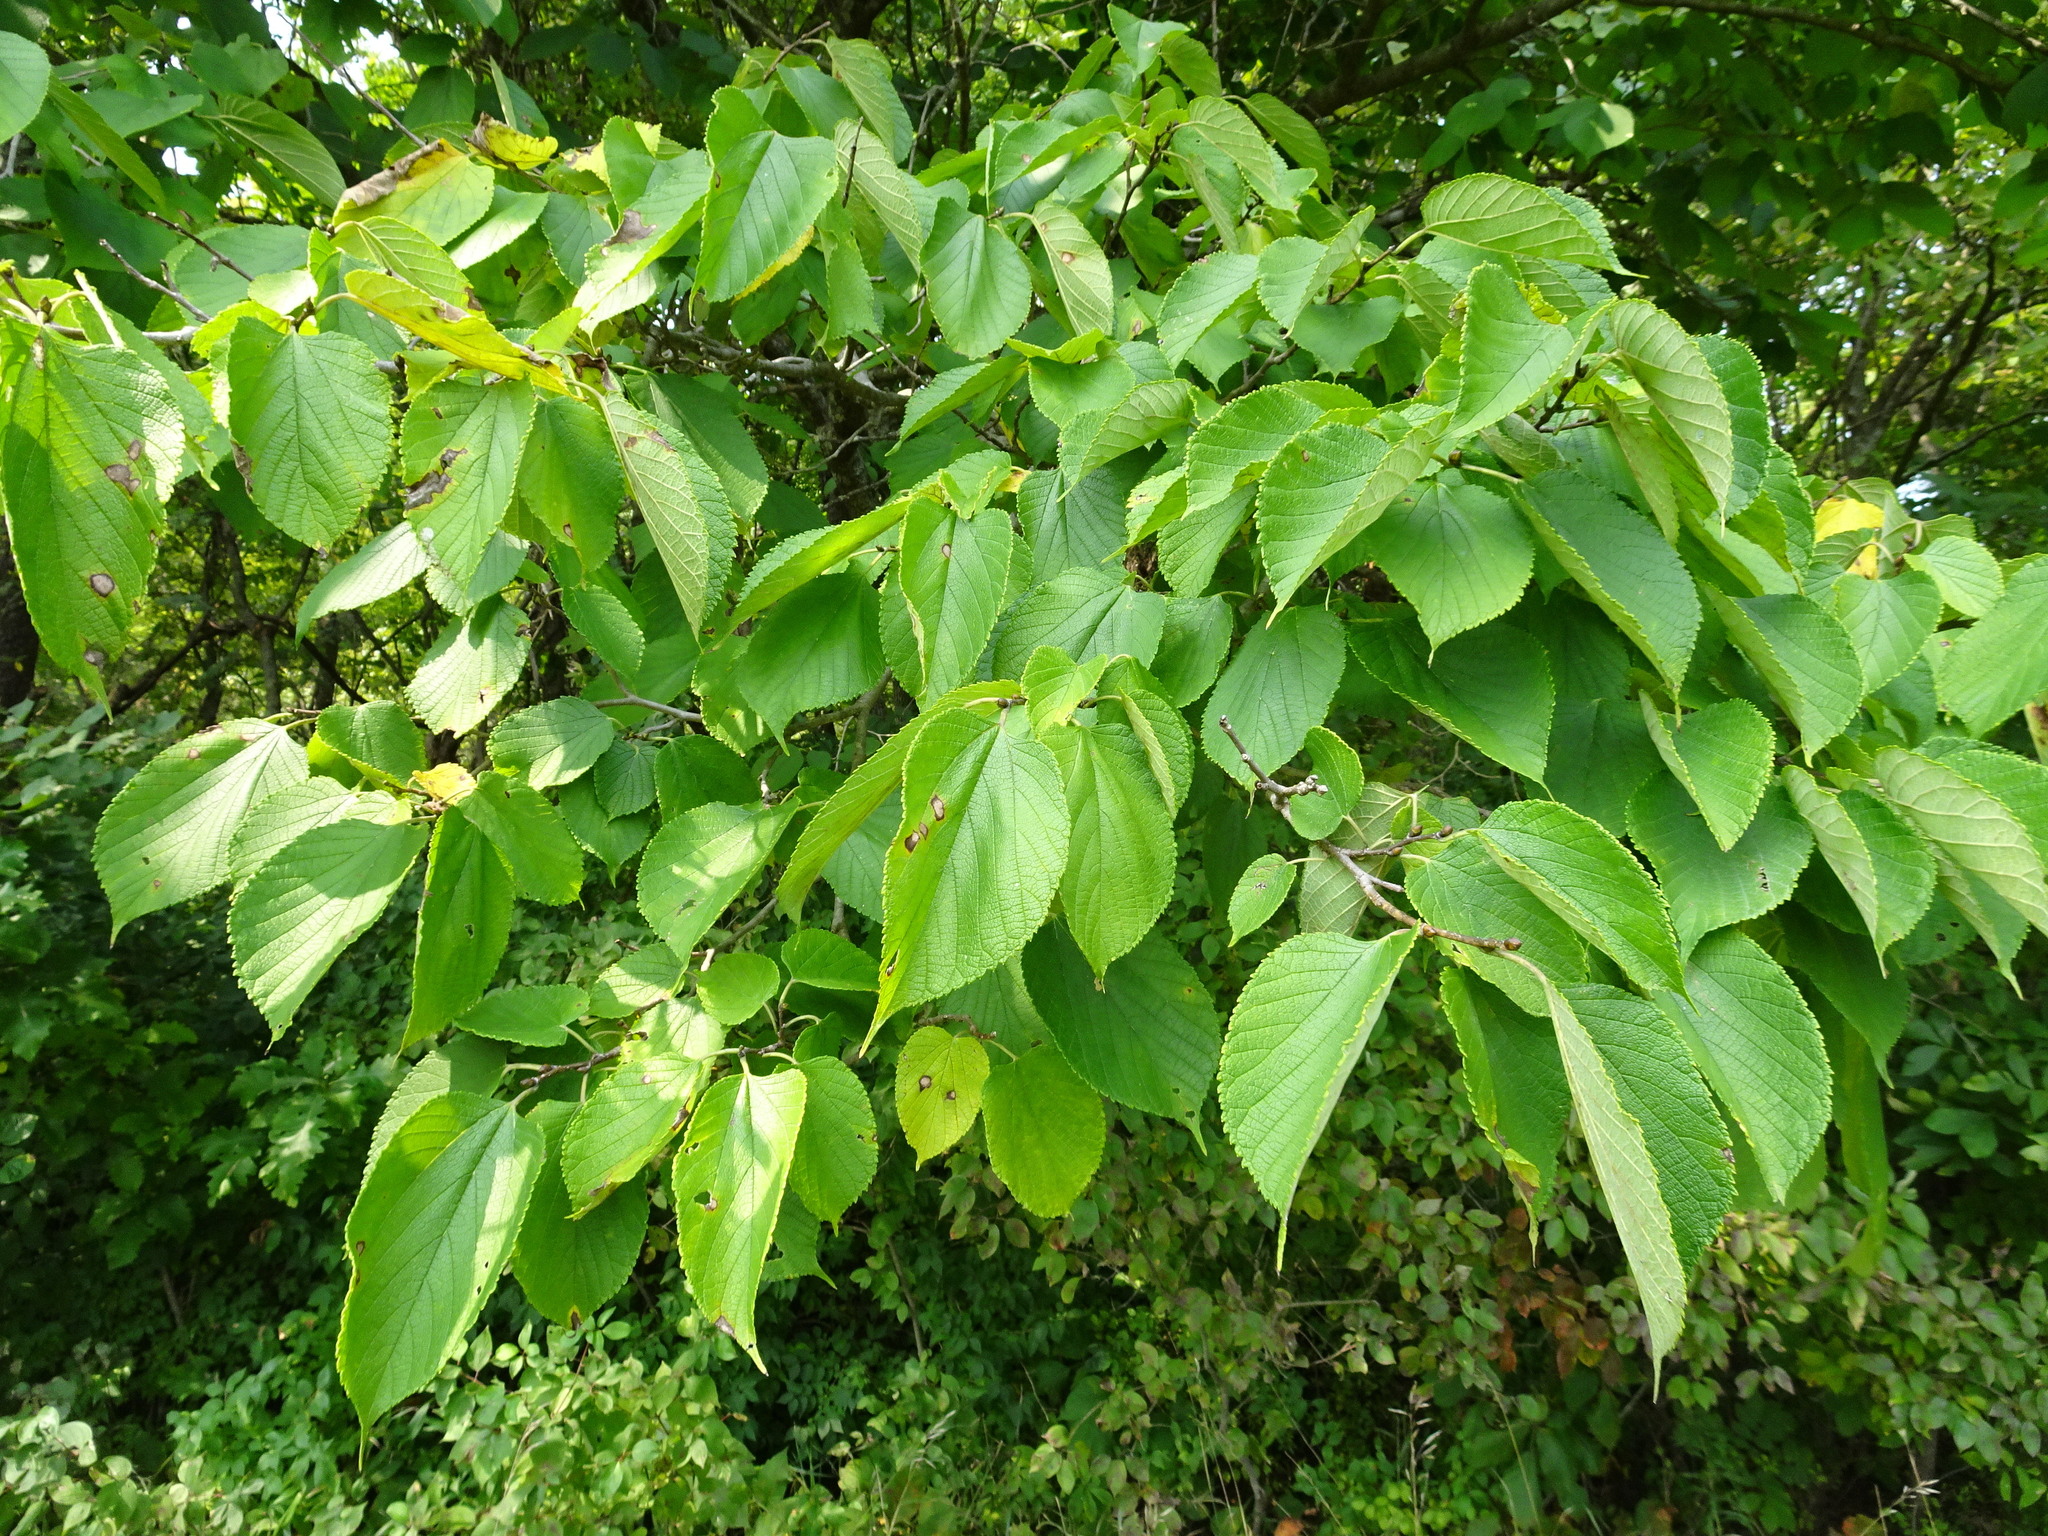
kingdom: Plantae
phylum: Tracheophyta
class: Magnoliopsida
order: Rosales
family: Moraceae
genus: Morus
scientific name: Morus rubra
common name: Red mulberry
